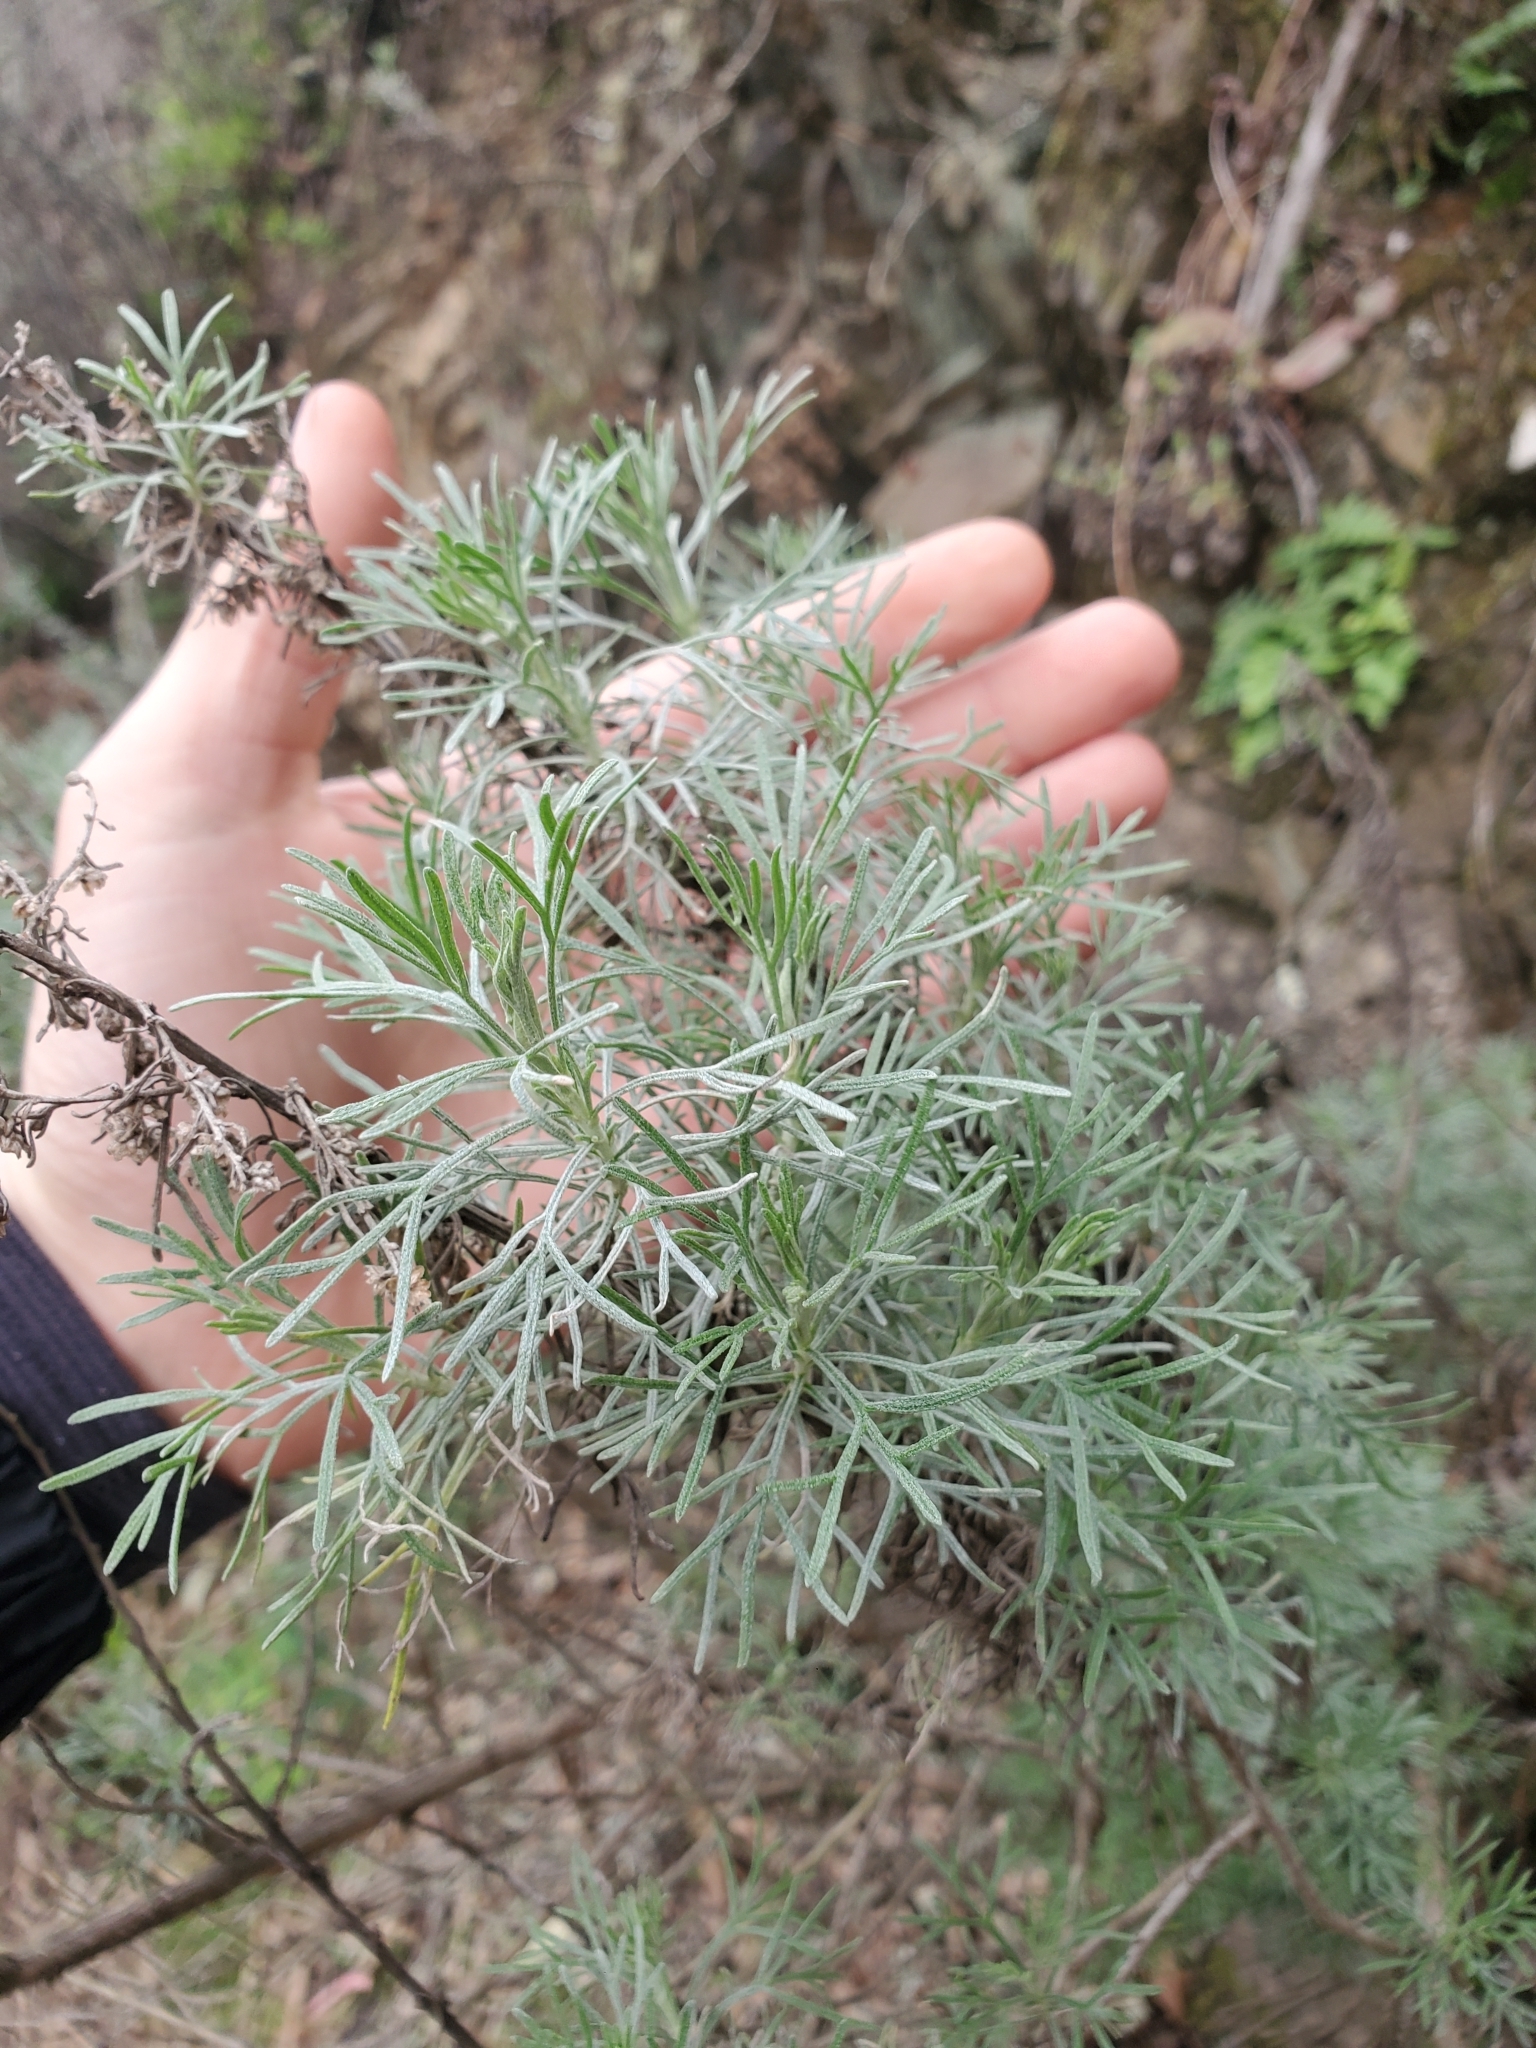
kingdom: Plantae
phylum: Tracheophyta
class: Magnoliopsida
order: Asterales
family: Asteraceae
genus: Artemisia
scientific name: Artemisia californica
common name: California sagebrush
